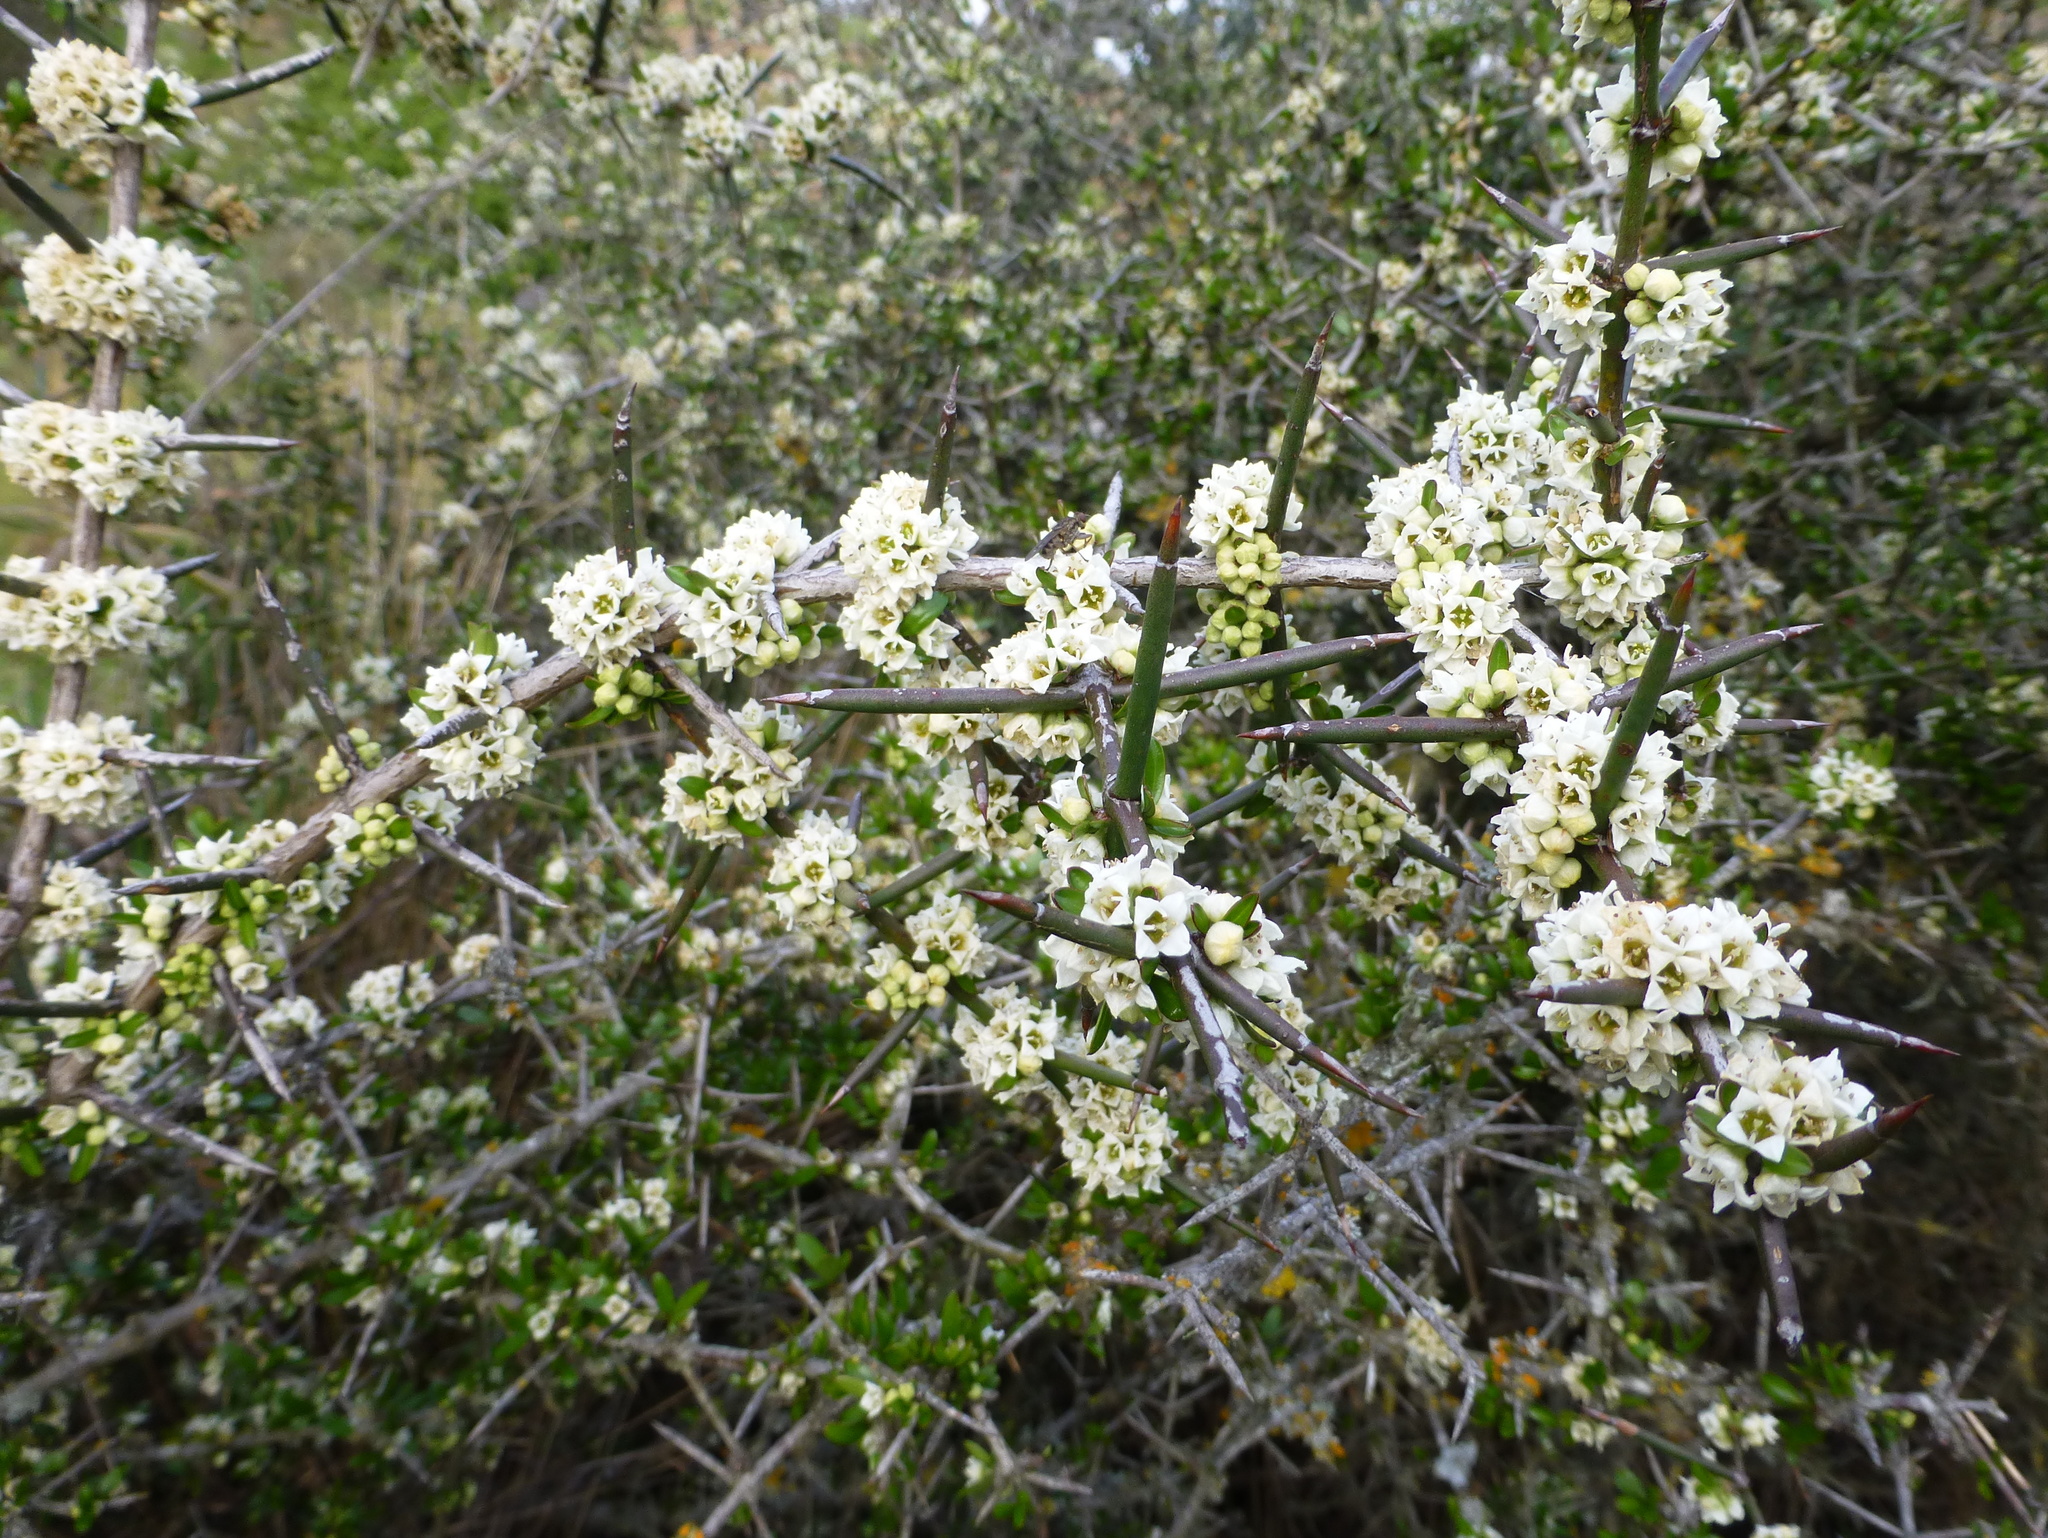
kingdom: Plantae
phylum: Tracheophyta
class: Magnoliopsida
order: Rosales
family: Rhamnaceae
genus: Discaria
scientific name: Discaria toumatou
